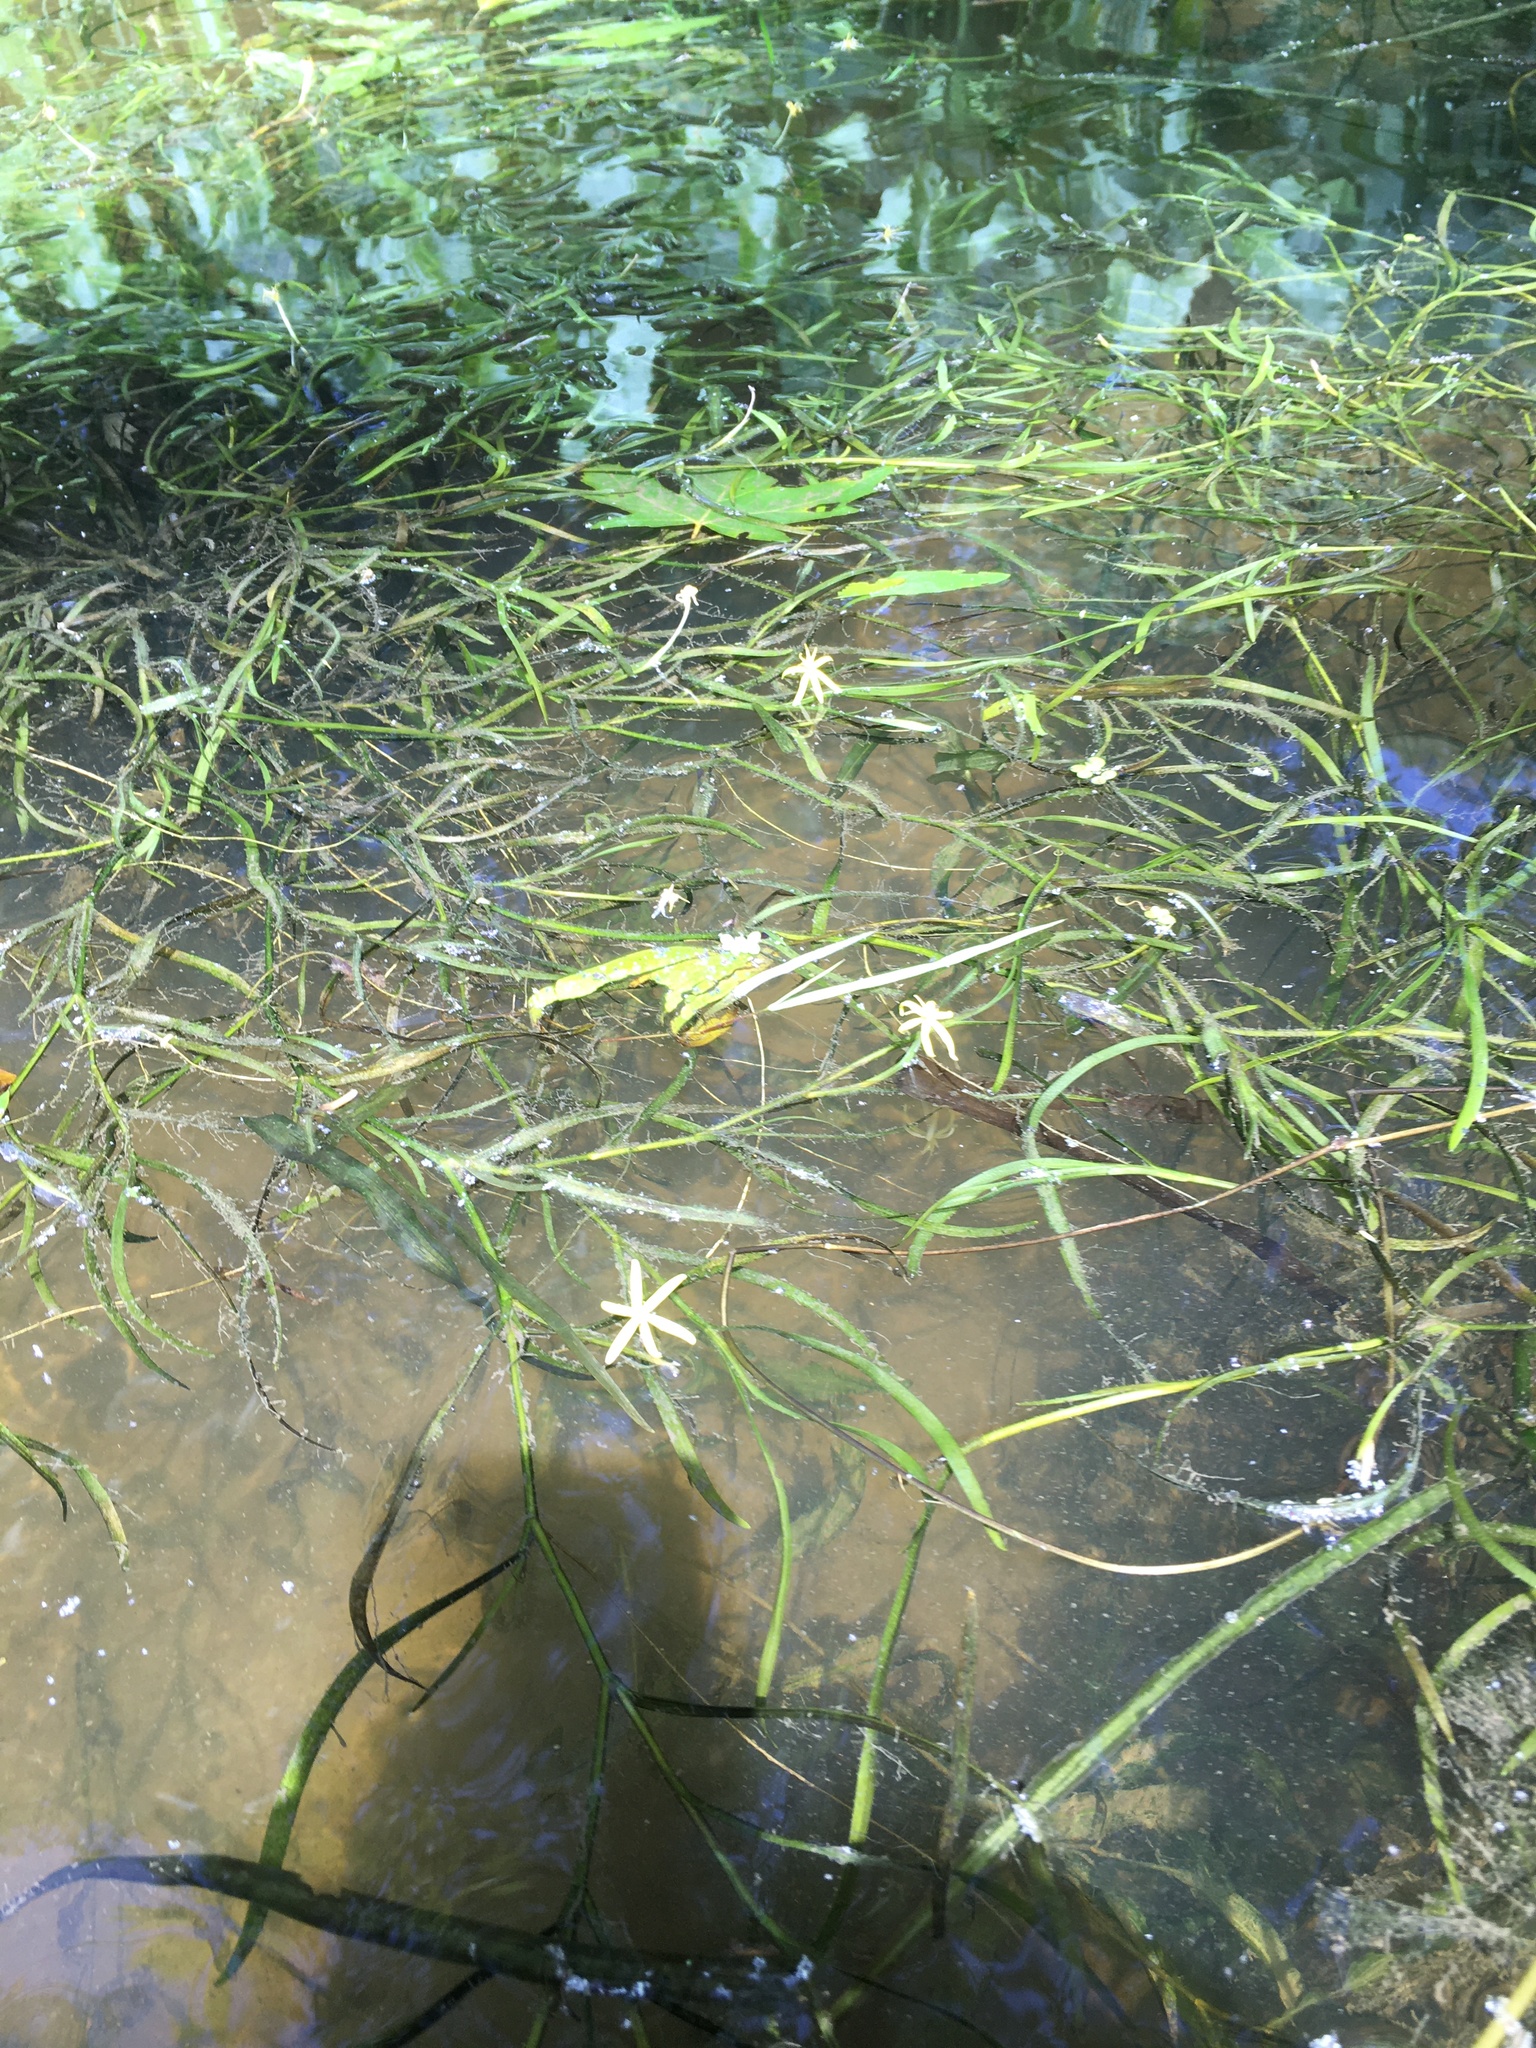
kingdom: Plantae
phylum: Tracheophyta
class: Liliopsida
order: Commelinales
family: Pontederiaceae
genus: Heteranthera
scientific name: Heteranthera dubia
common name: Grass-leaved mud plantain
